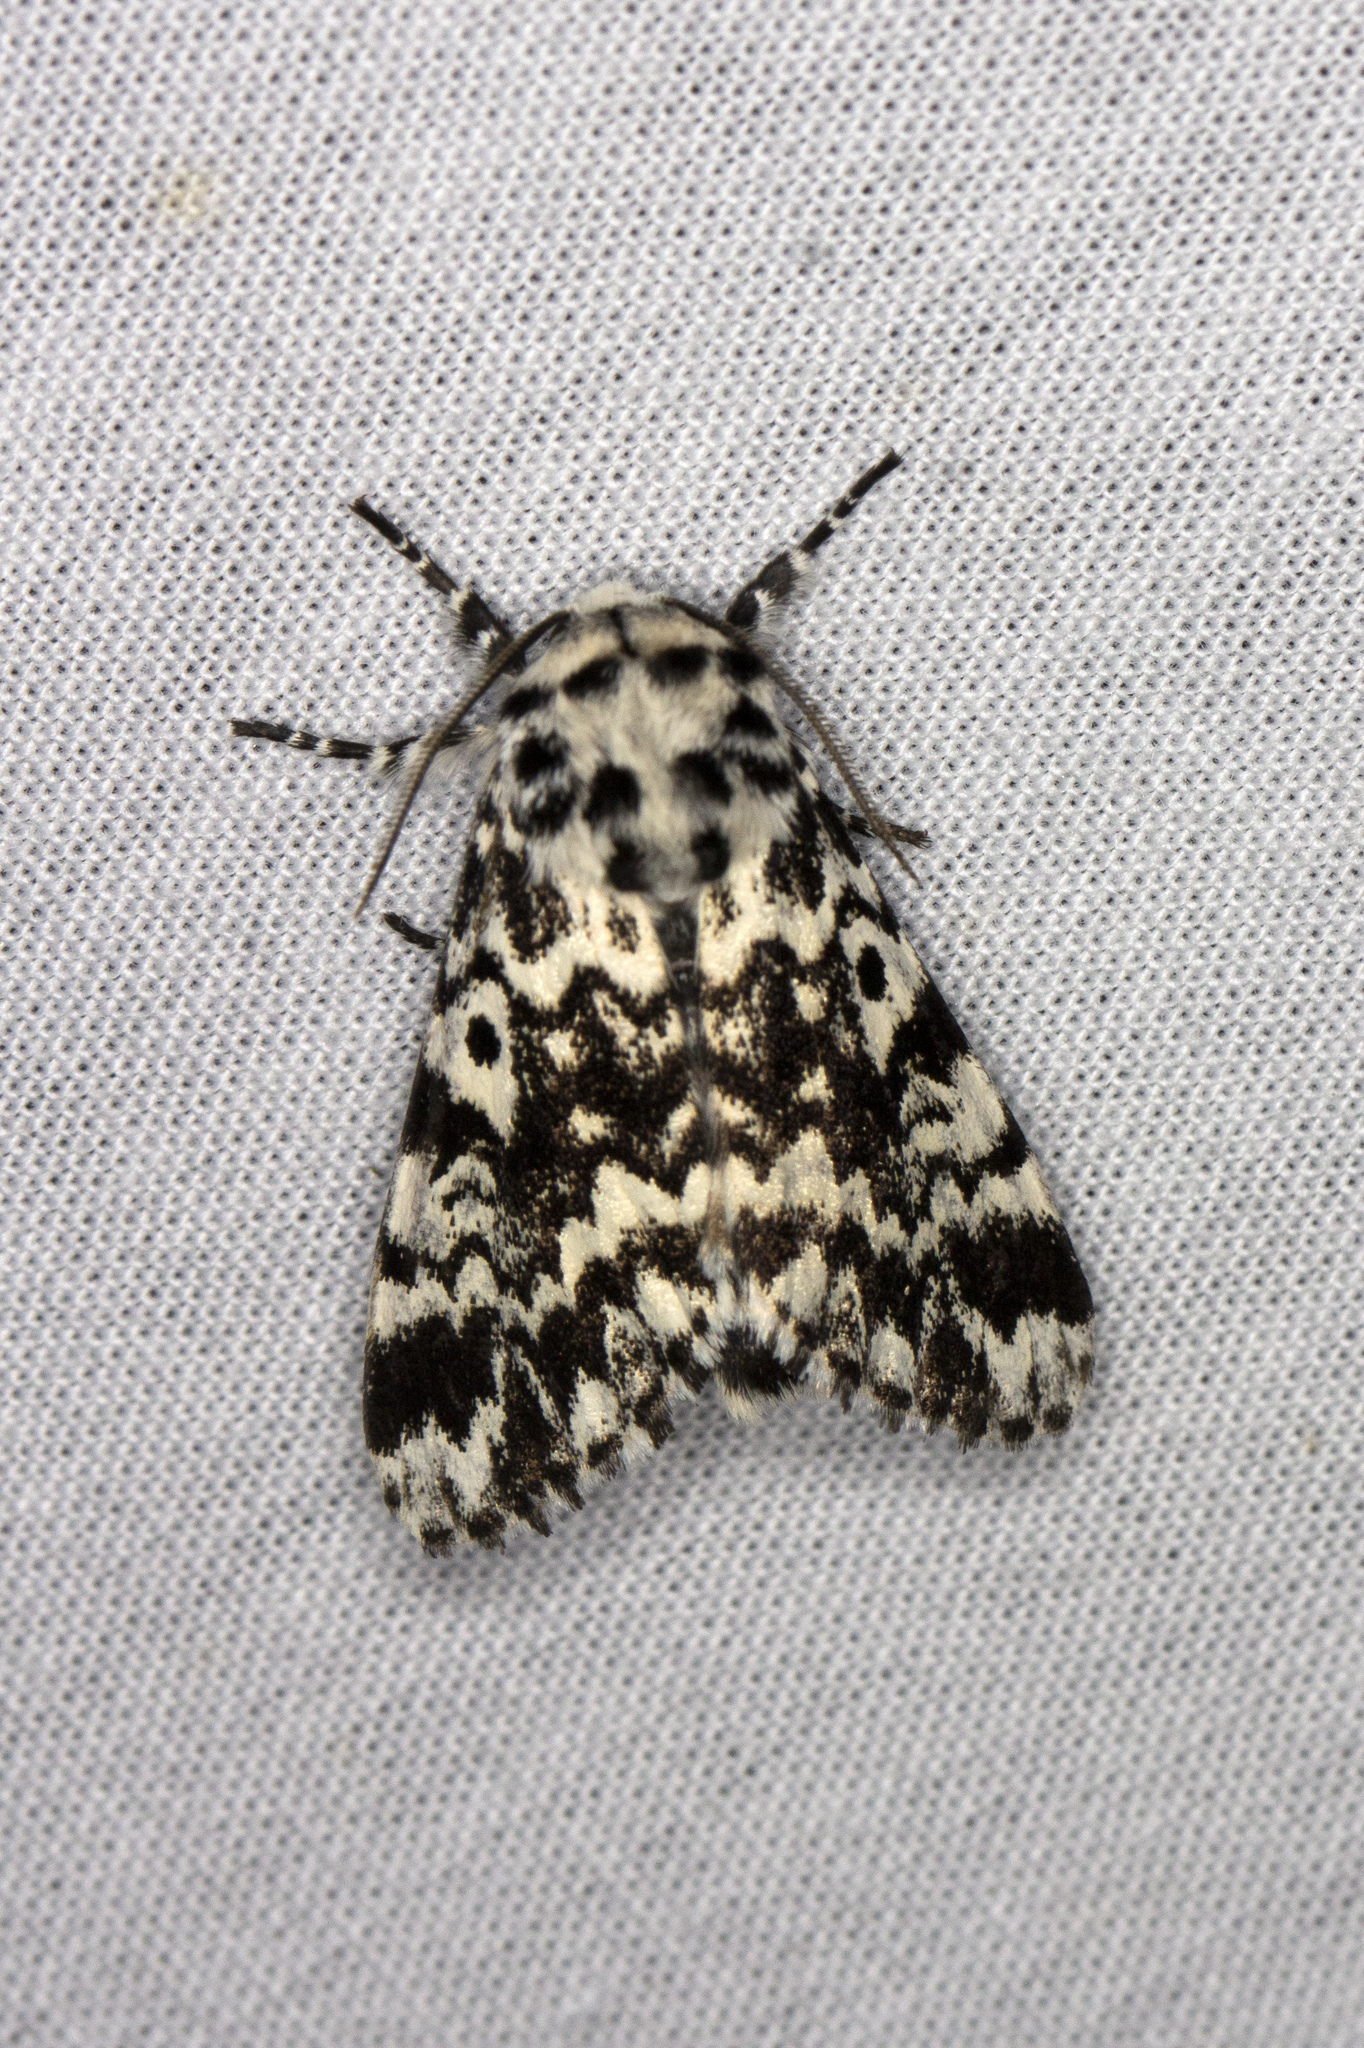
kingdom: Animalia
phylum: Arthropoda
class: Insecta
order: Lepidoptera
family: Noctuidae
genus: Panthea
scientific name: Panthea coenobita
